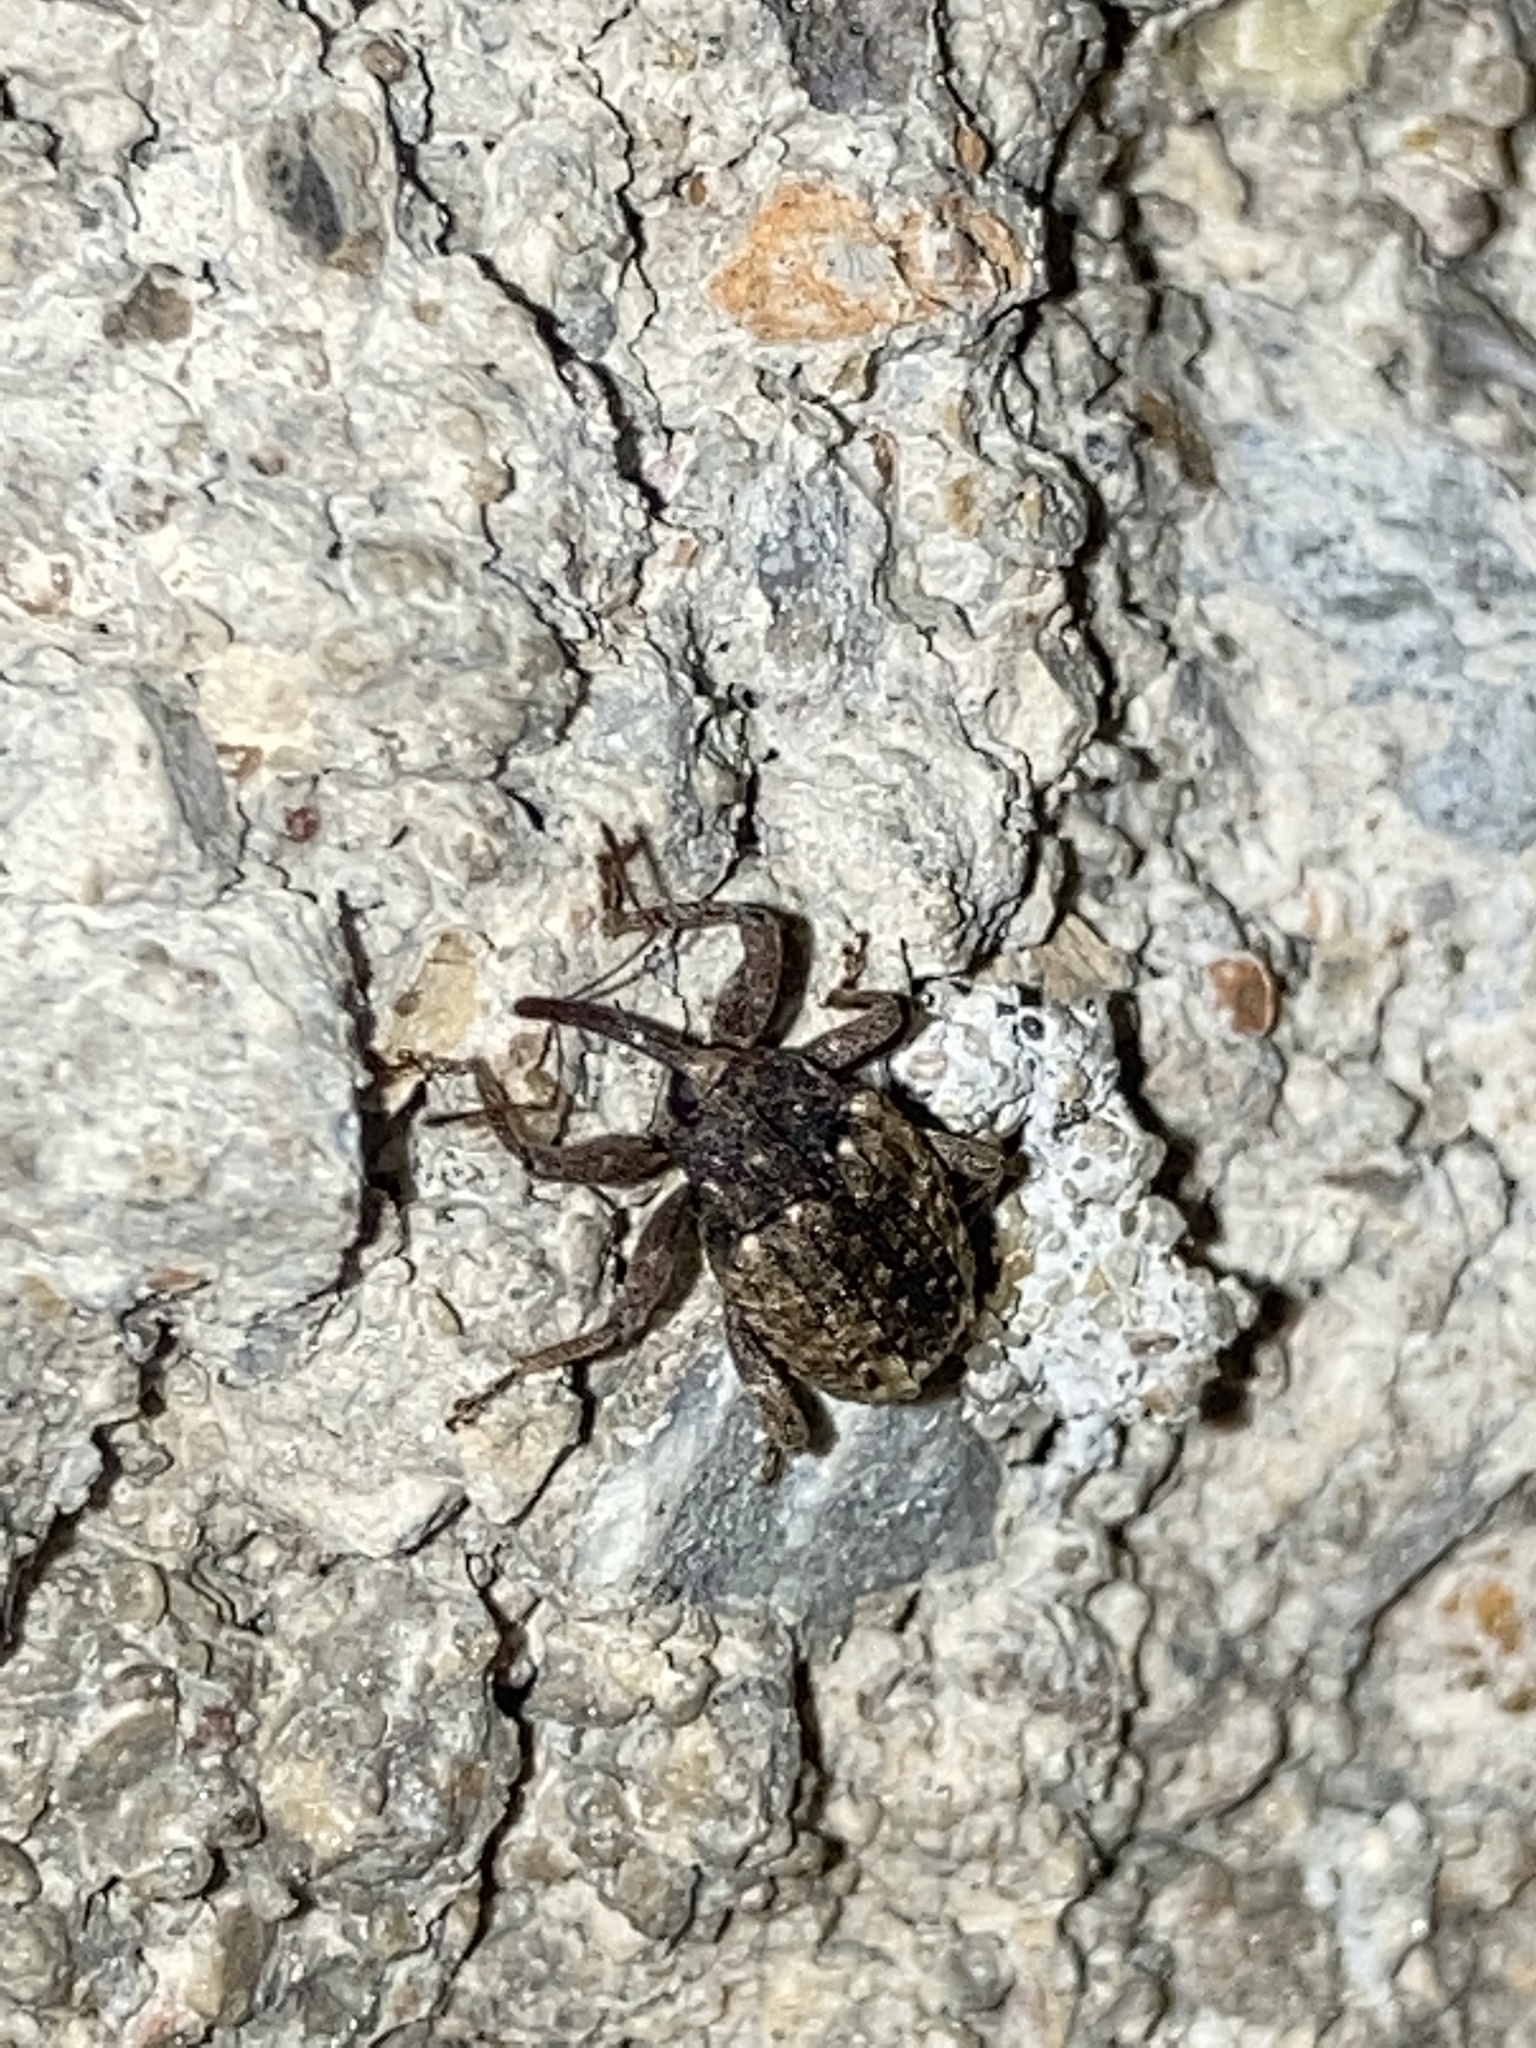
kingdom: Animalia
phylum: Arthropoda
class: Insecta
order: Coleoptera
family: Curculionidae
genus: Conotrachelus
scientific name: Conotrachelus carinifer
